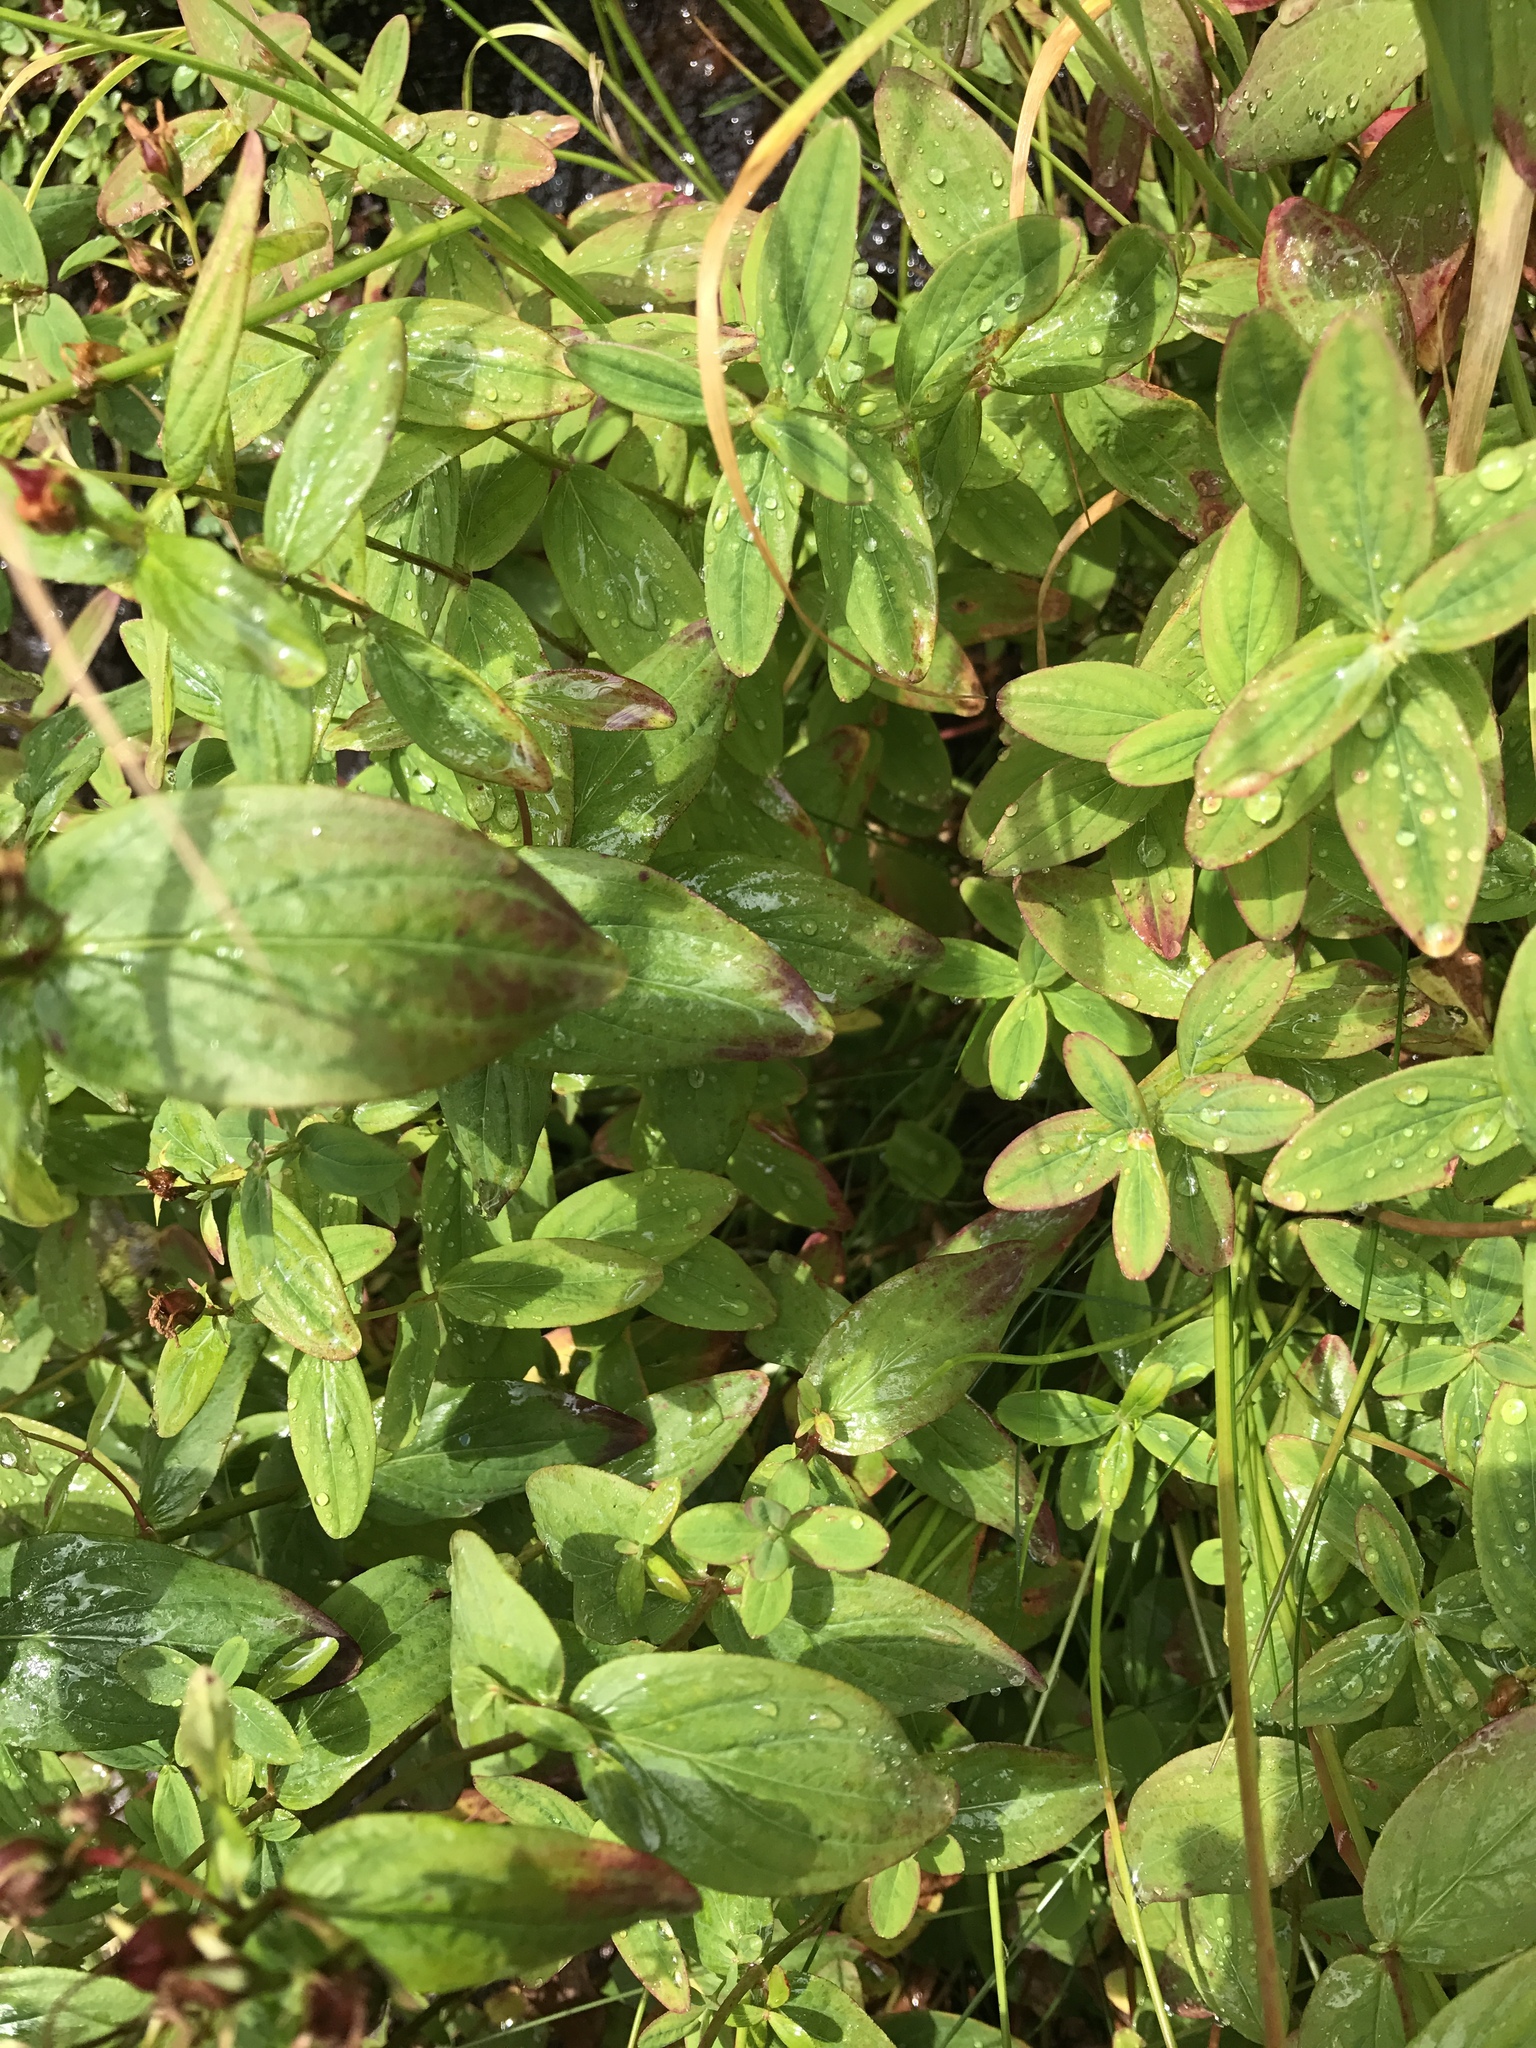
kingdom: Plantae
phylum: Tracheophyta
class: Magnoliopsida
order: Malpighiales
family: Hypericaceae
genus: Hypericum
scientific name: Hypericum mitchellianum
